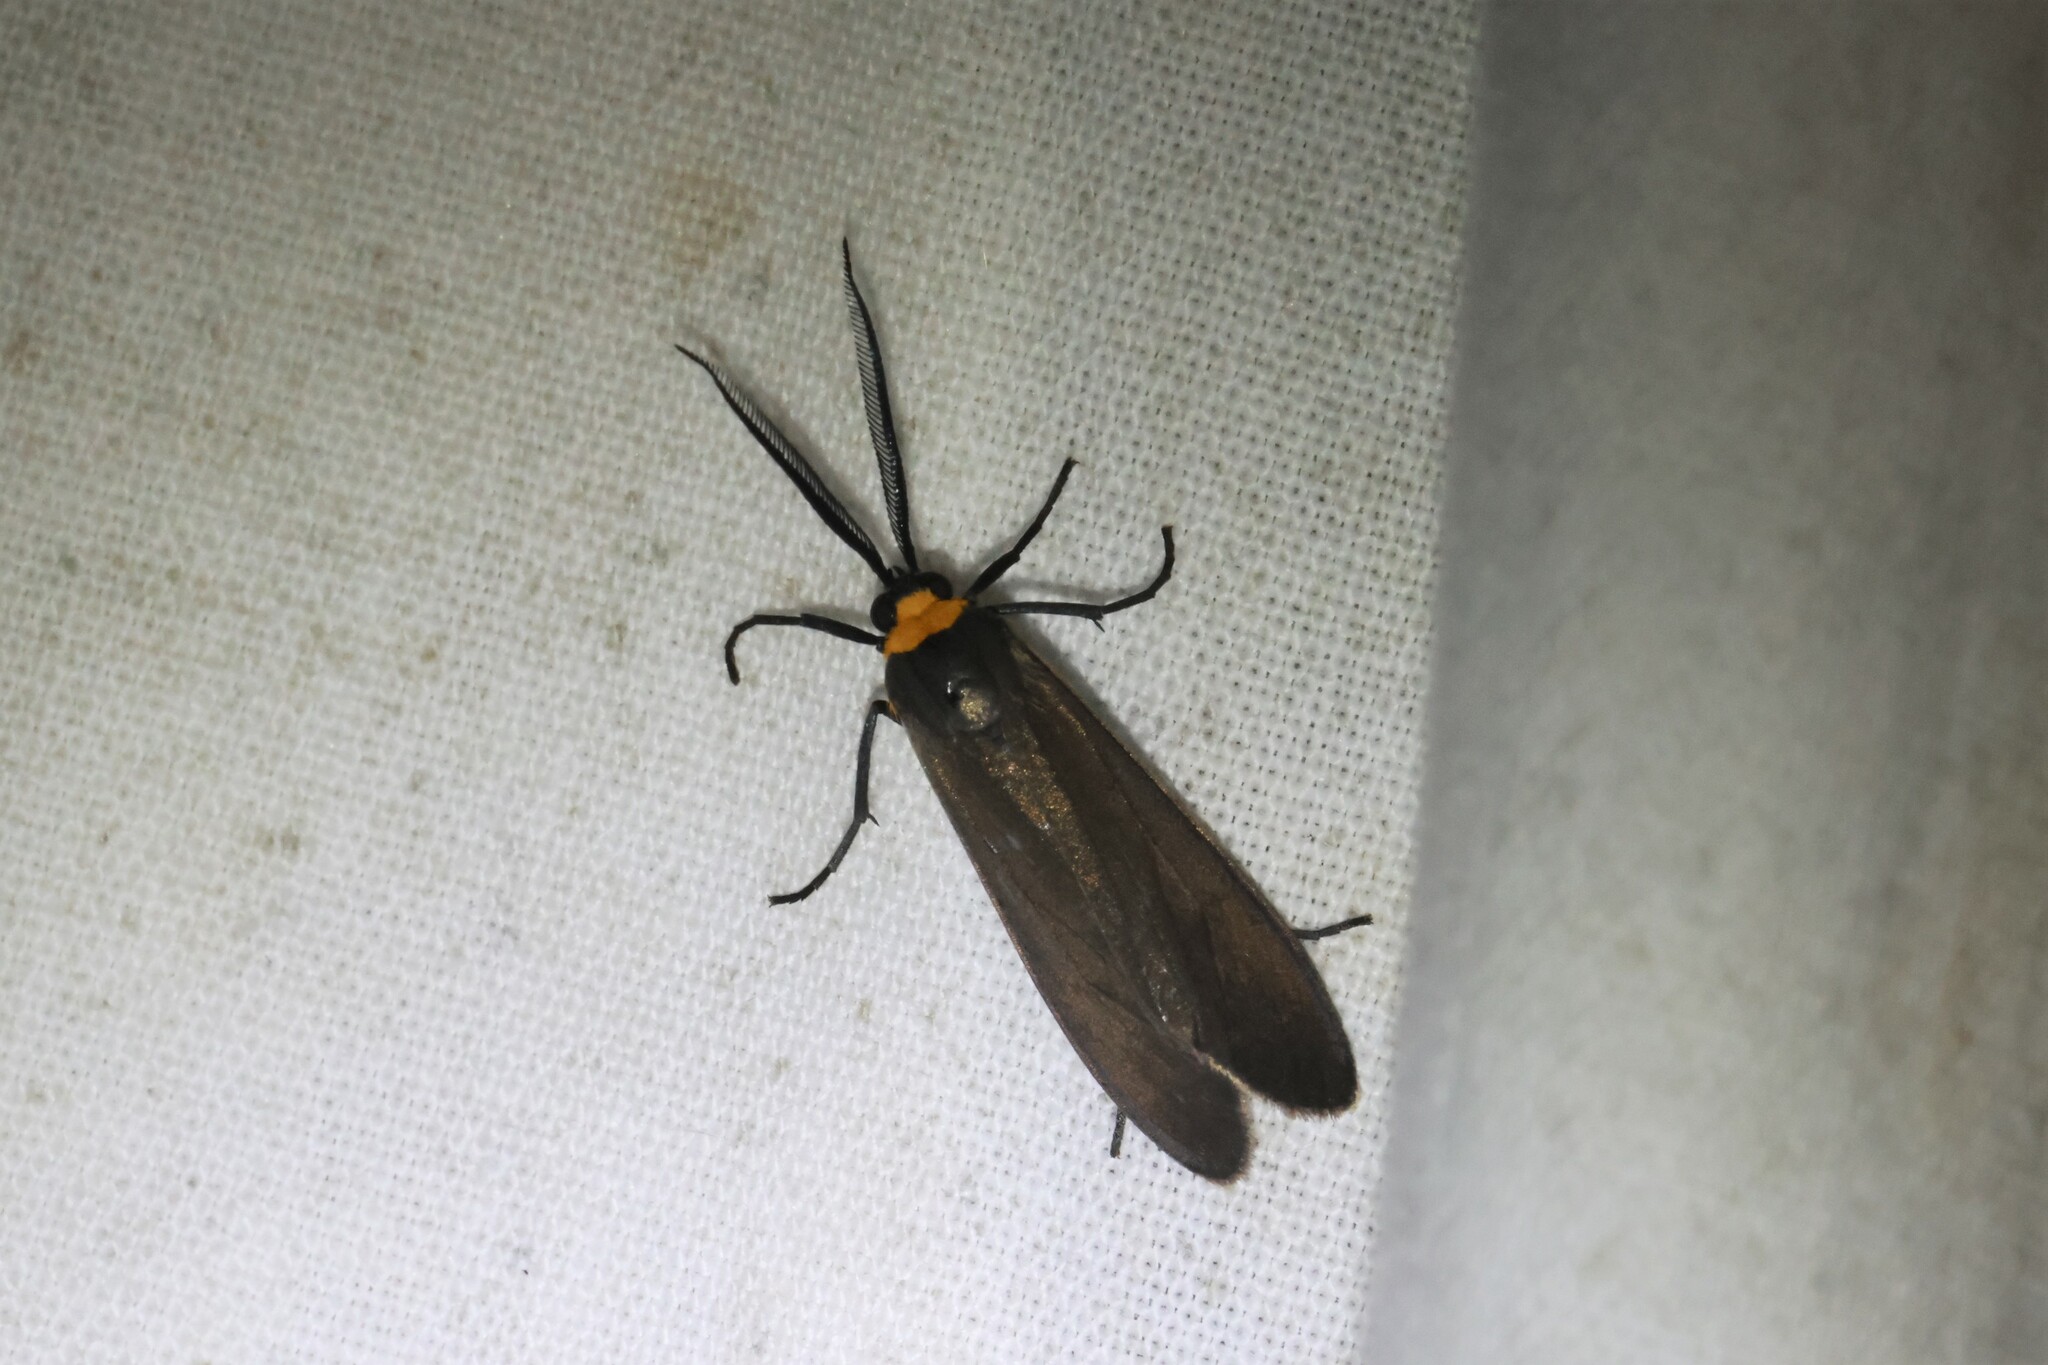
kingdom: Animalia
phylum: Arthropoda
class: Insecta
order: Lepidoptera
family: Erebidae
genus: Cisseps
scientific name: Cisseps fulvicollis
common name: Yellow-collared scape moth
